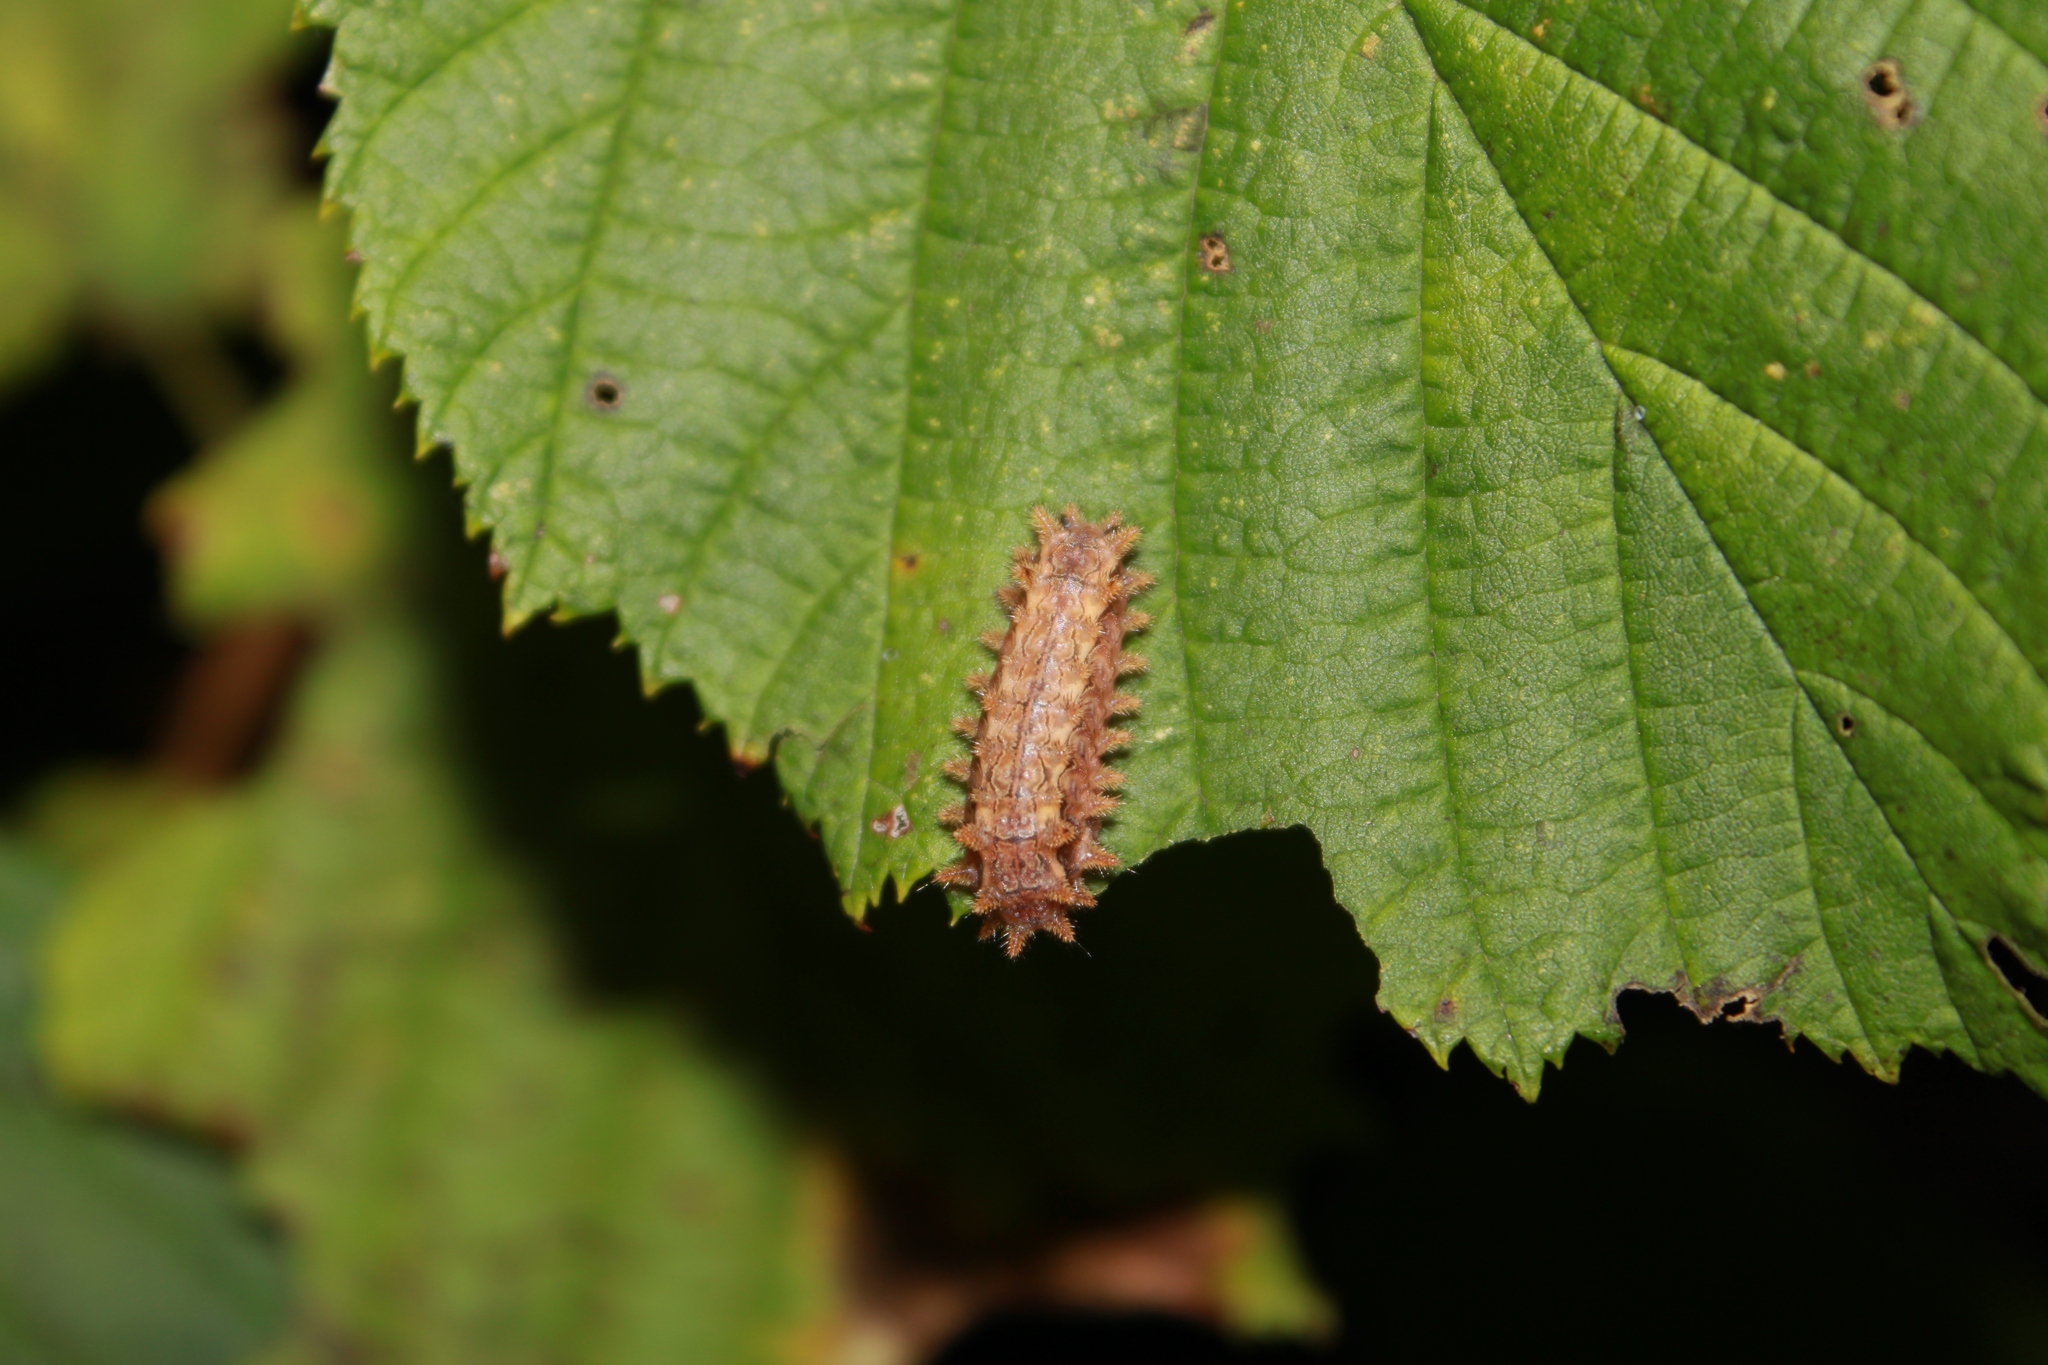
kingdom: Animalia
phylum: Arthropoda
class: Insecta
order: Lepidoptera
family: Limacodidae
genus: Euclea
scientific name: Euclea delphinii
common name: Spiny oak-slug moth
